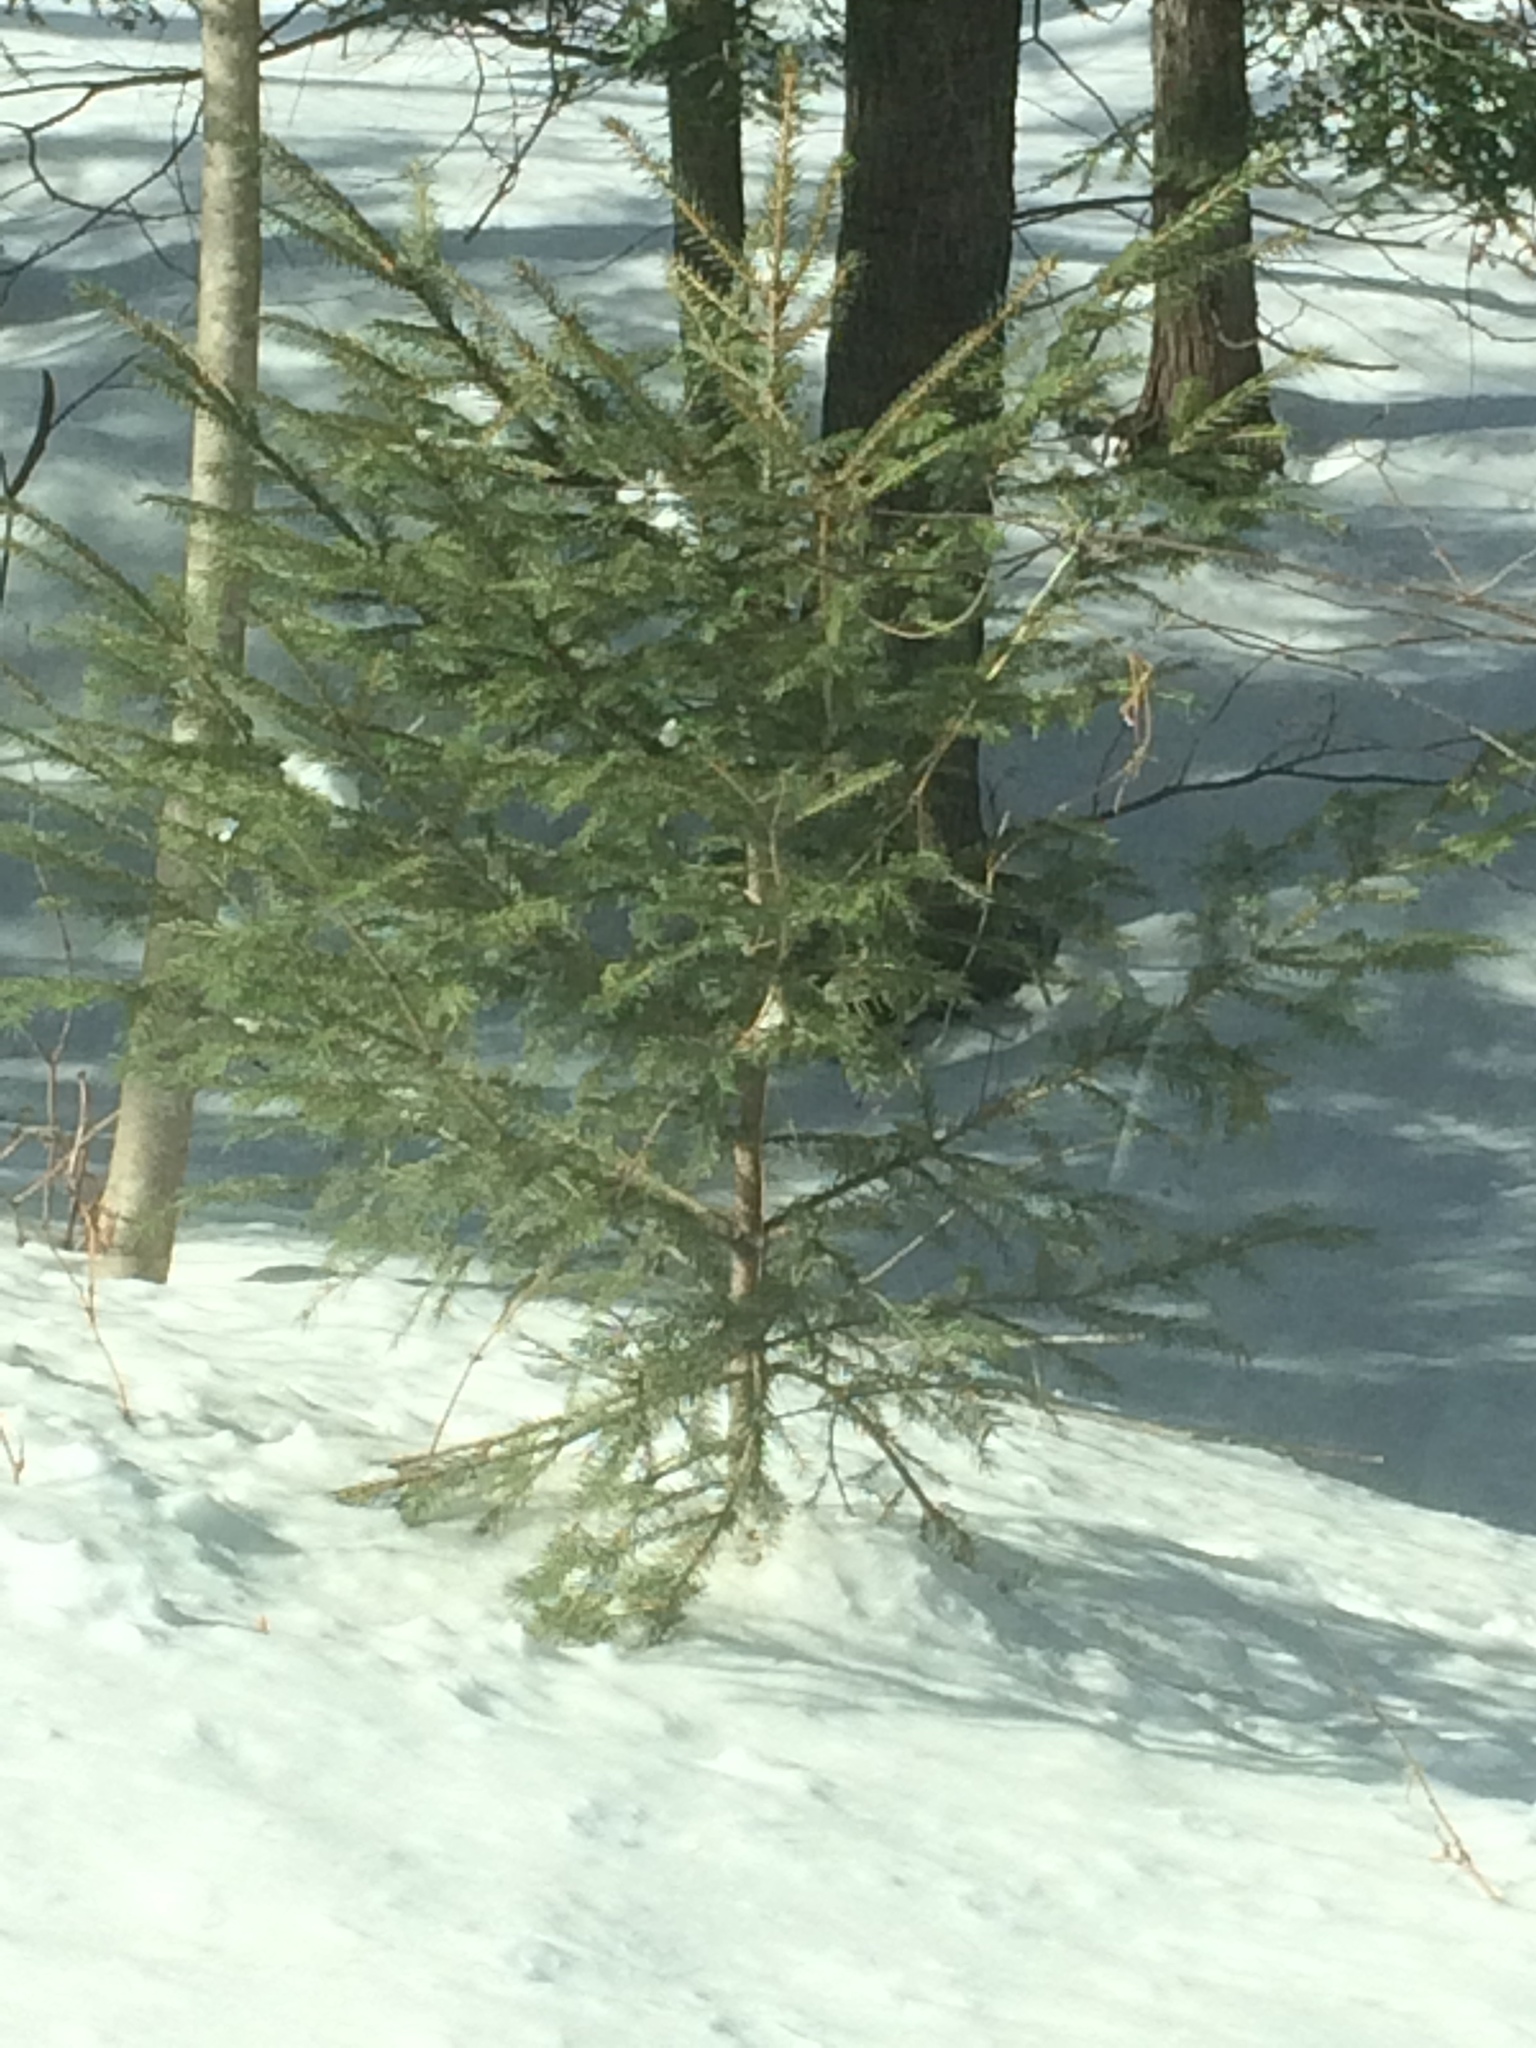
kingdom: Plantae
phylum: Tracheophyta
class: Pinopsida
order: Pinales
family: Pinaceae
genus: Picea
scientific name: Picea rubens
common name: Red spruce
